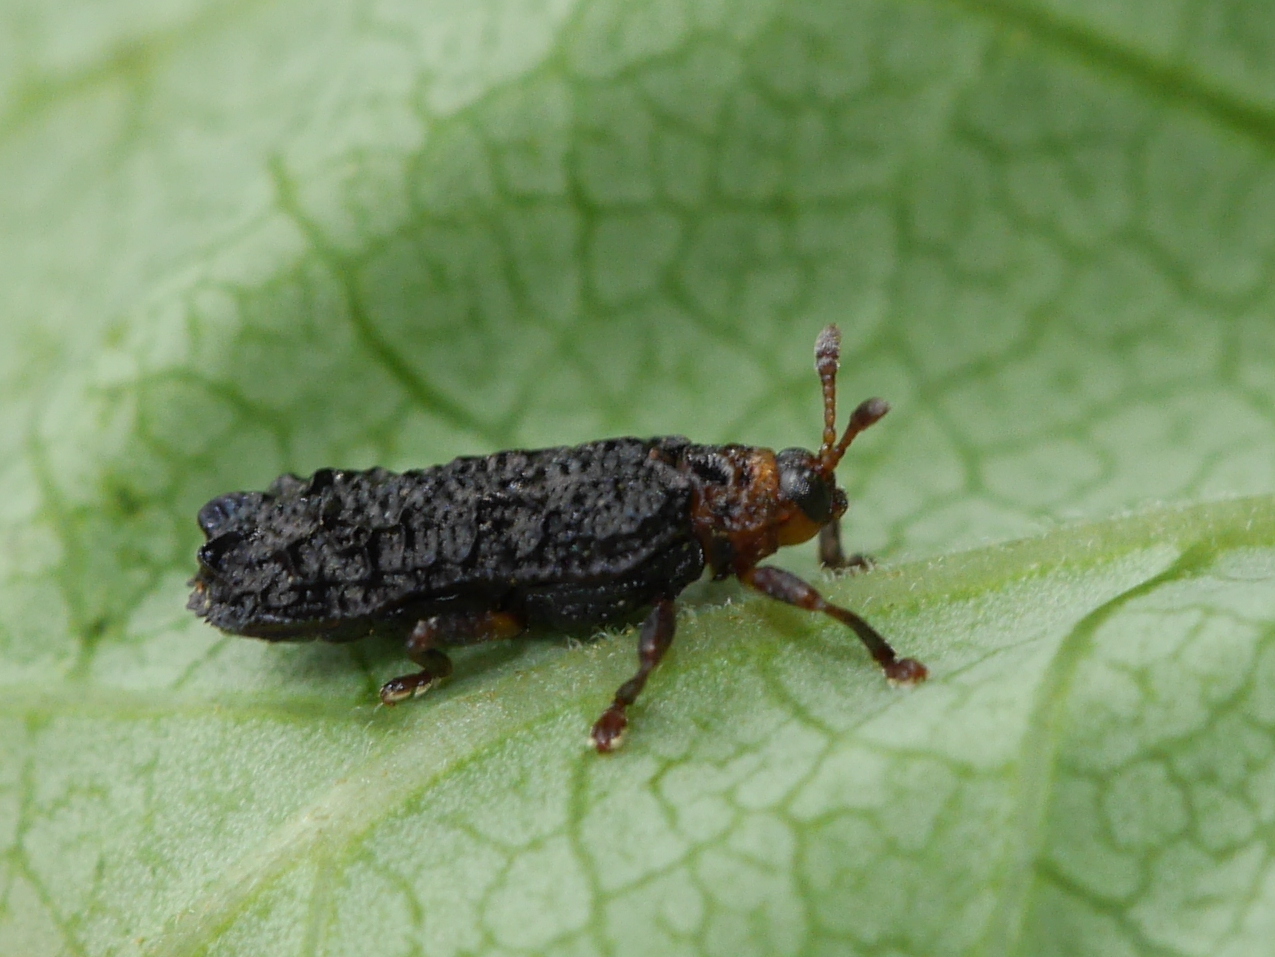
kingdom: Animalia
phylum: Arthropoda
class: Insecta
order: Coleoptera
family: Chrysomelidae
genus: Octotoma
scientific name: Octotoma plicatula
